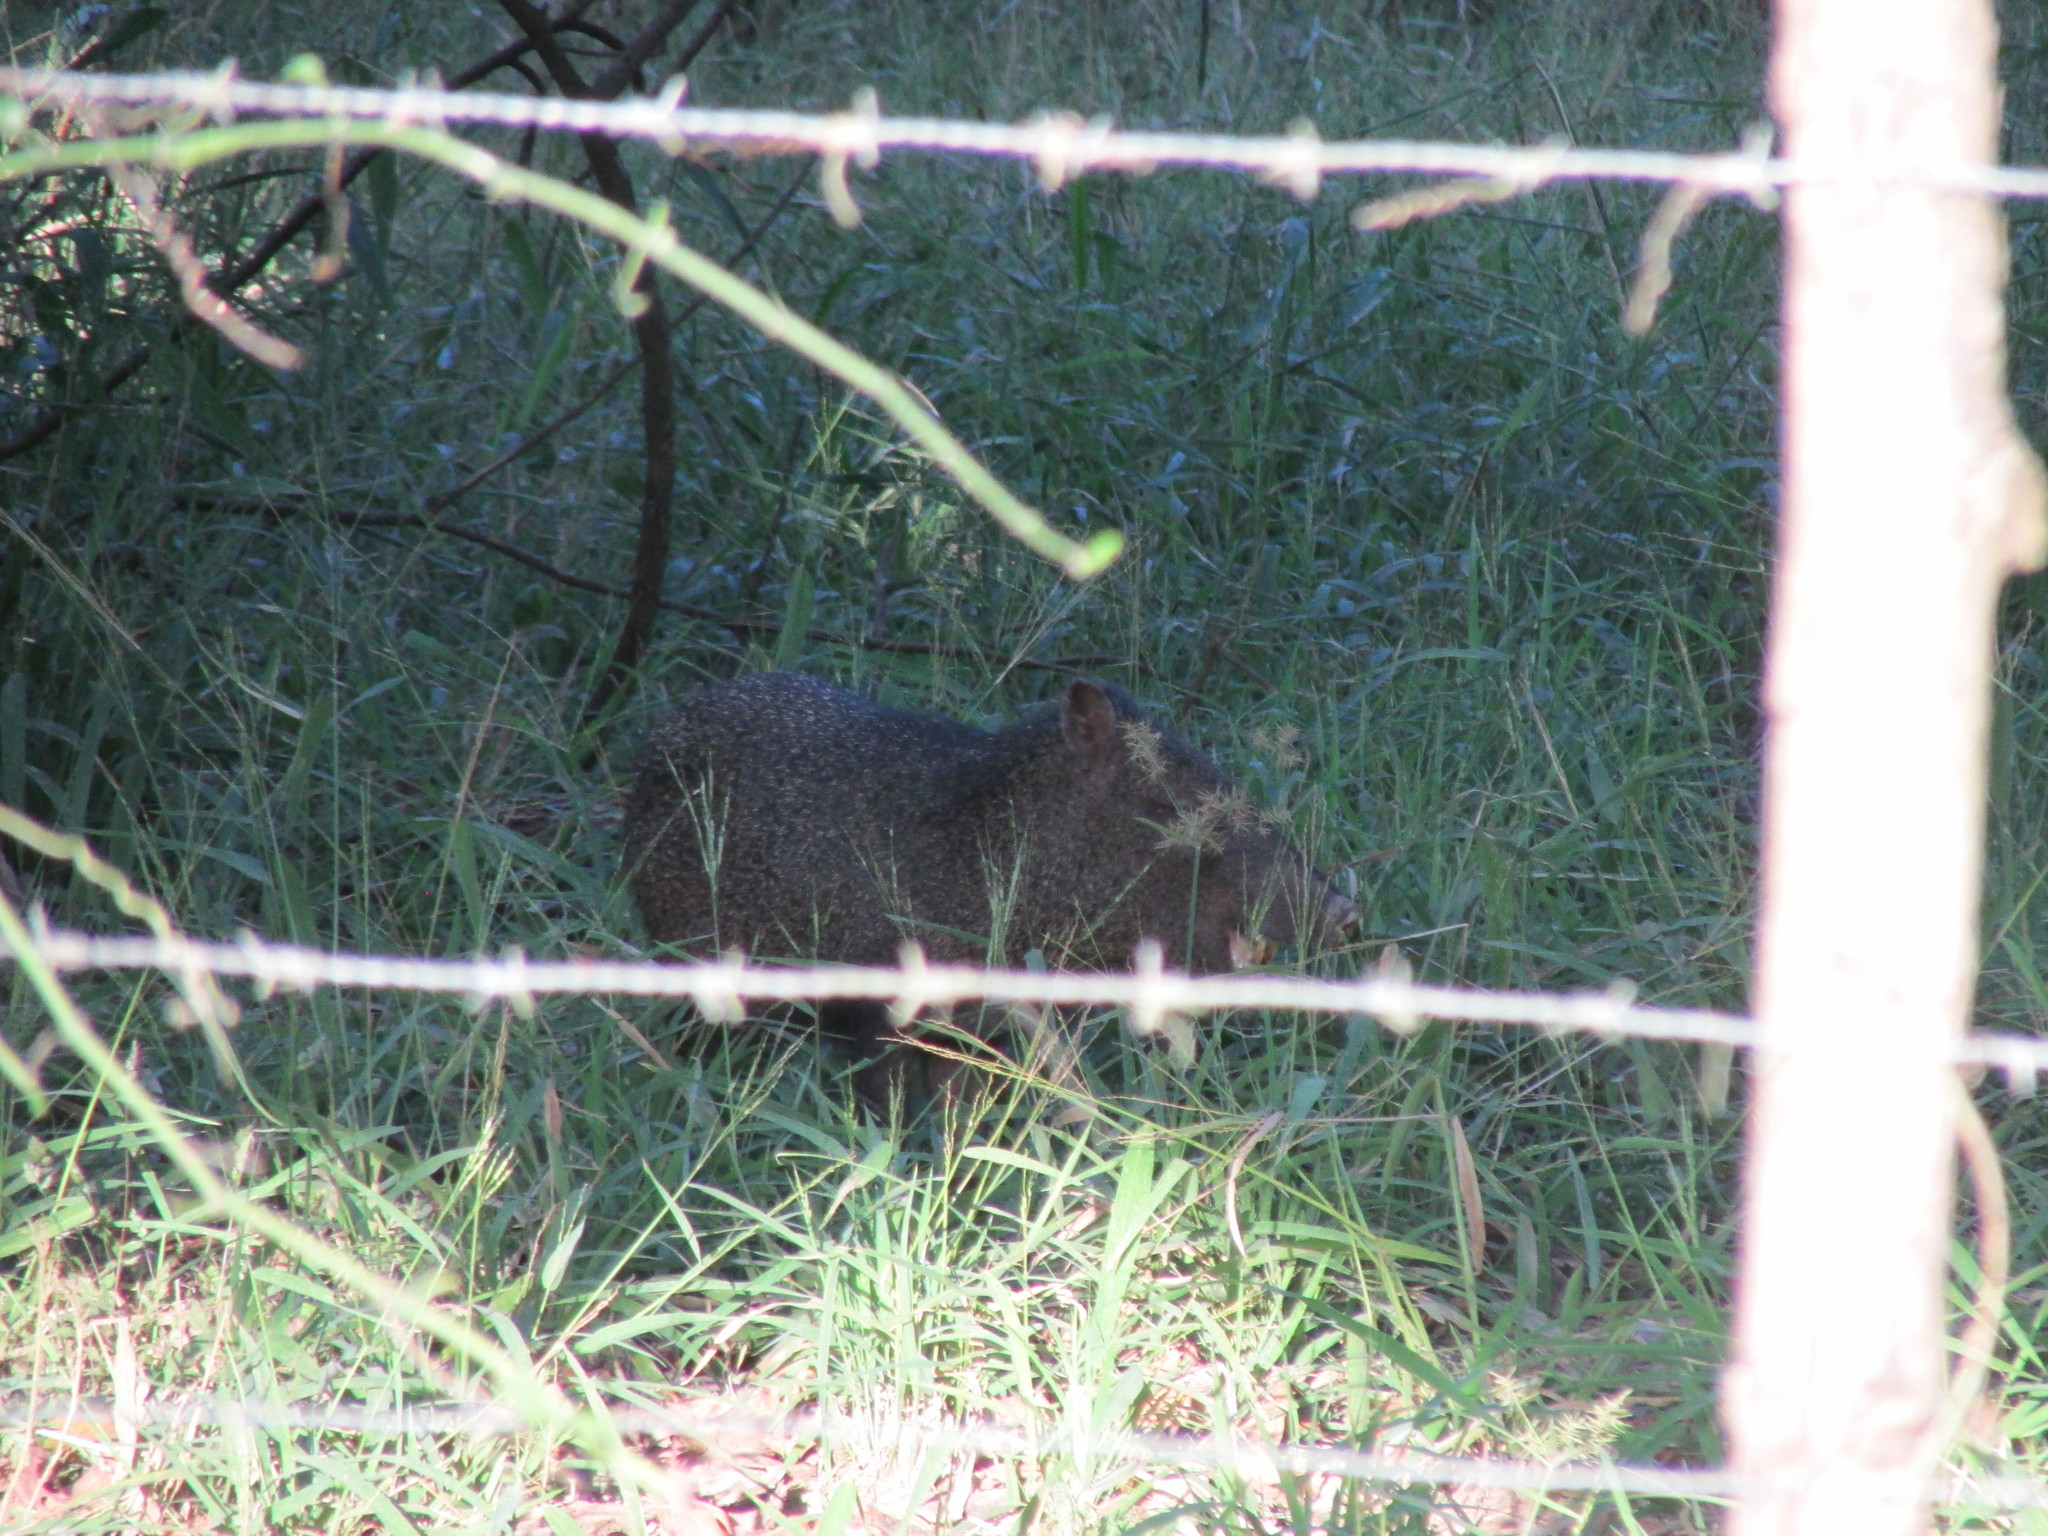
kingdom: Animalia
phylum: Chordata
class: Mammalia
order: Artiodactyla
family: Tayassuidae
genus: Pecari
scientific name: Pecari tajacu
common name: Collared peccary
